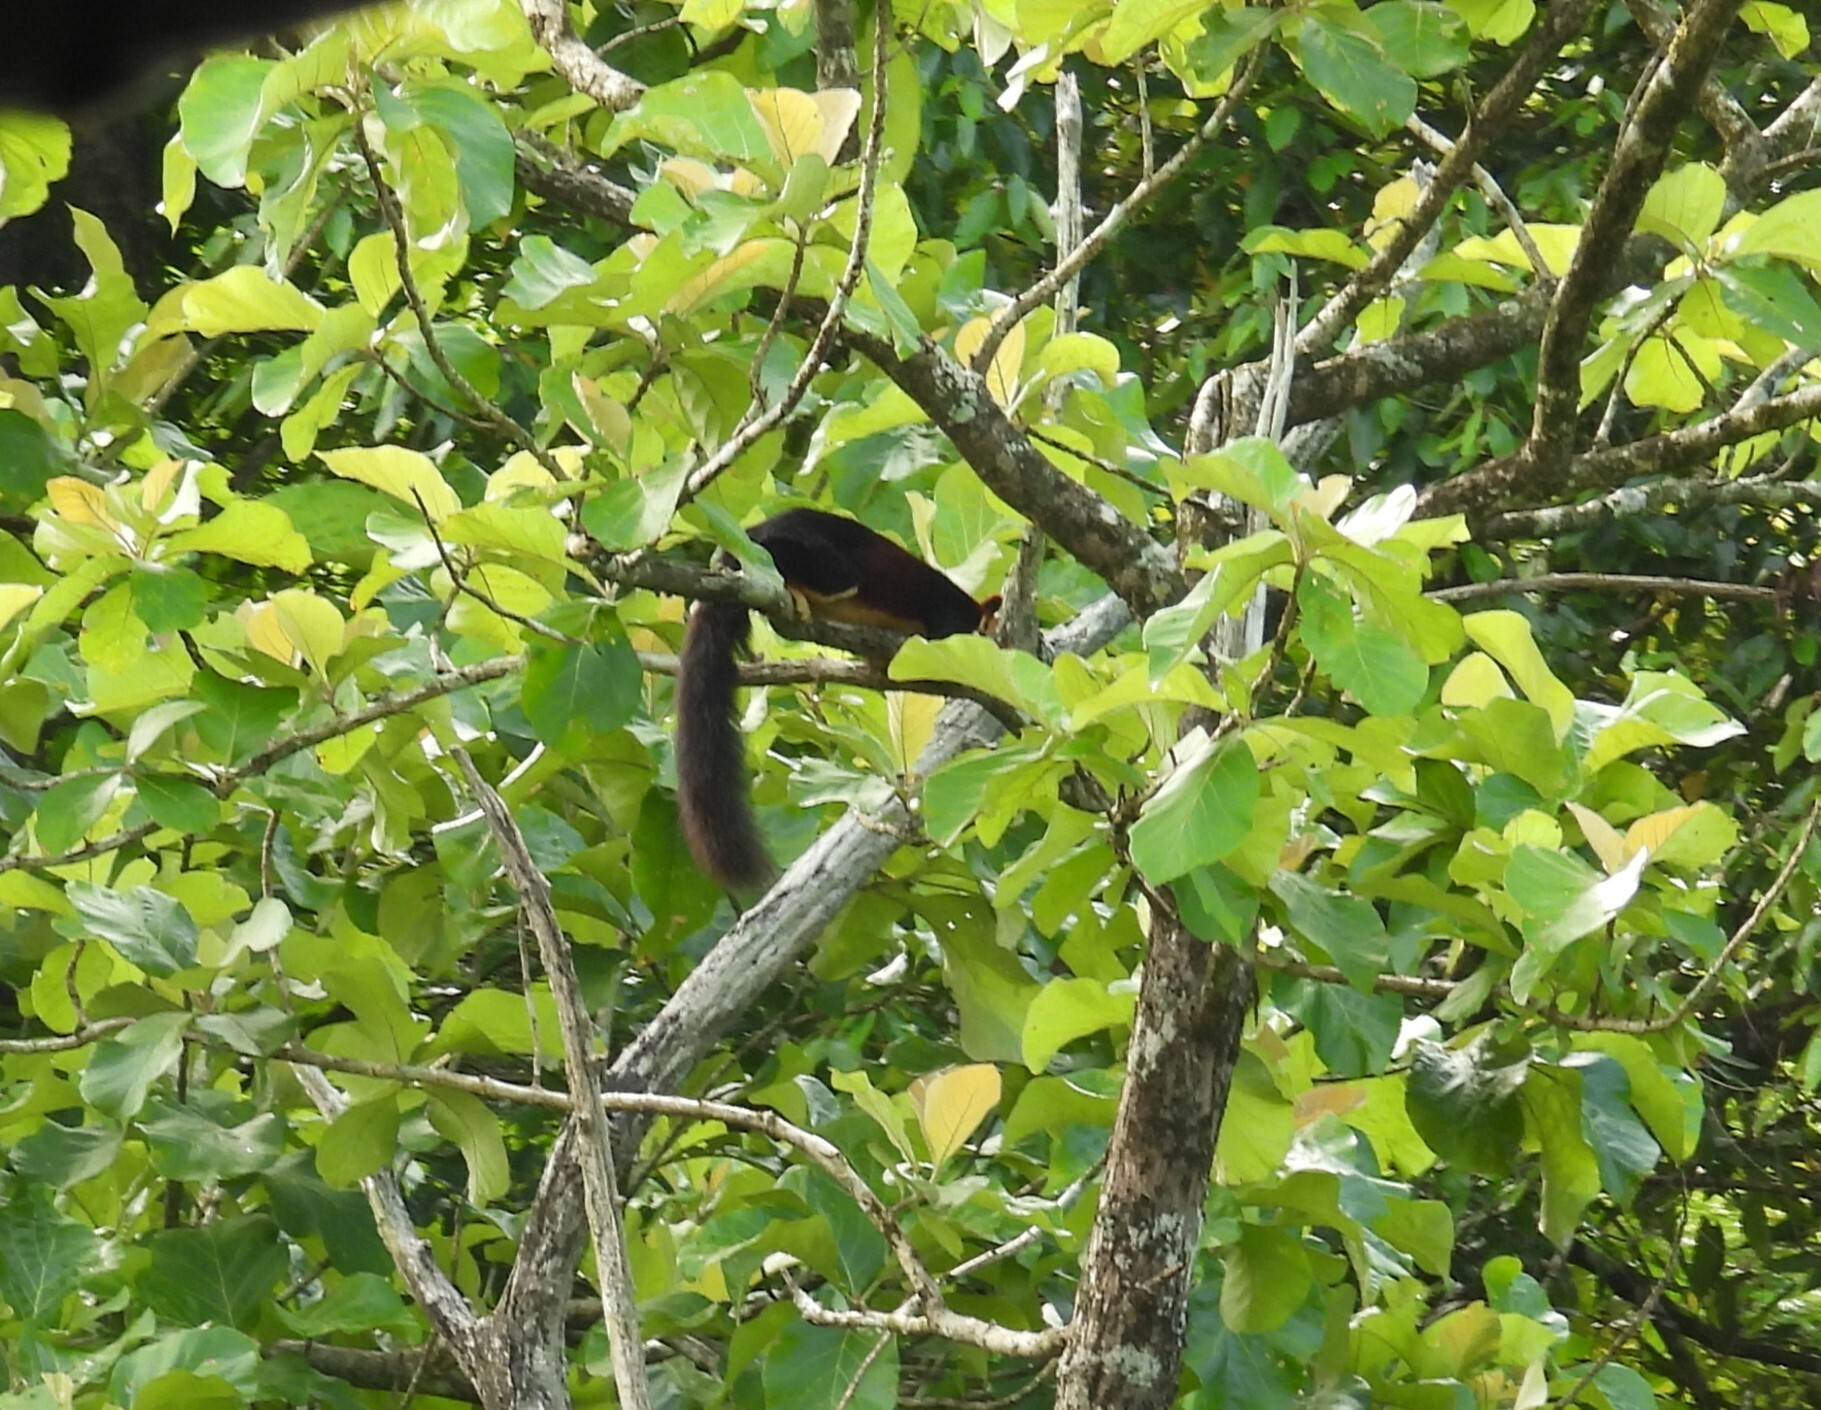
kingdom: Animalia
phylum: Chordata
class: Mammalia
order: Rodentia
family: Sciuridae
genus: Ratufa
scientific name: Ratufa indica
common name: Indian giant squirrel
